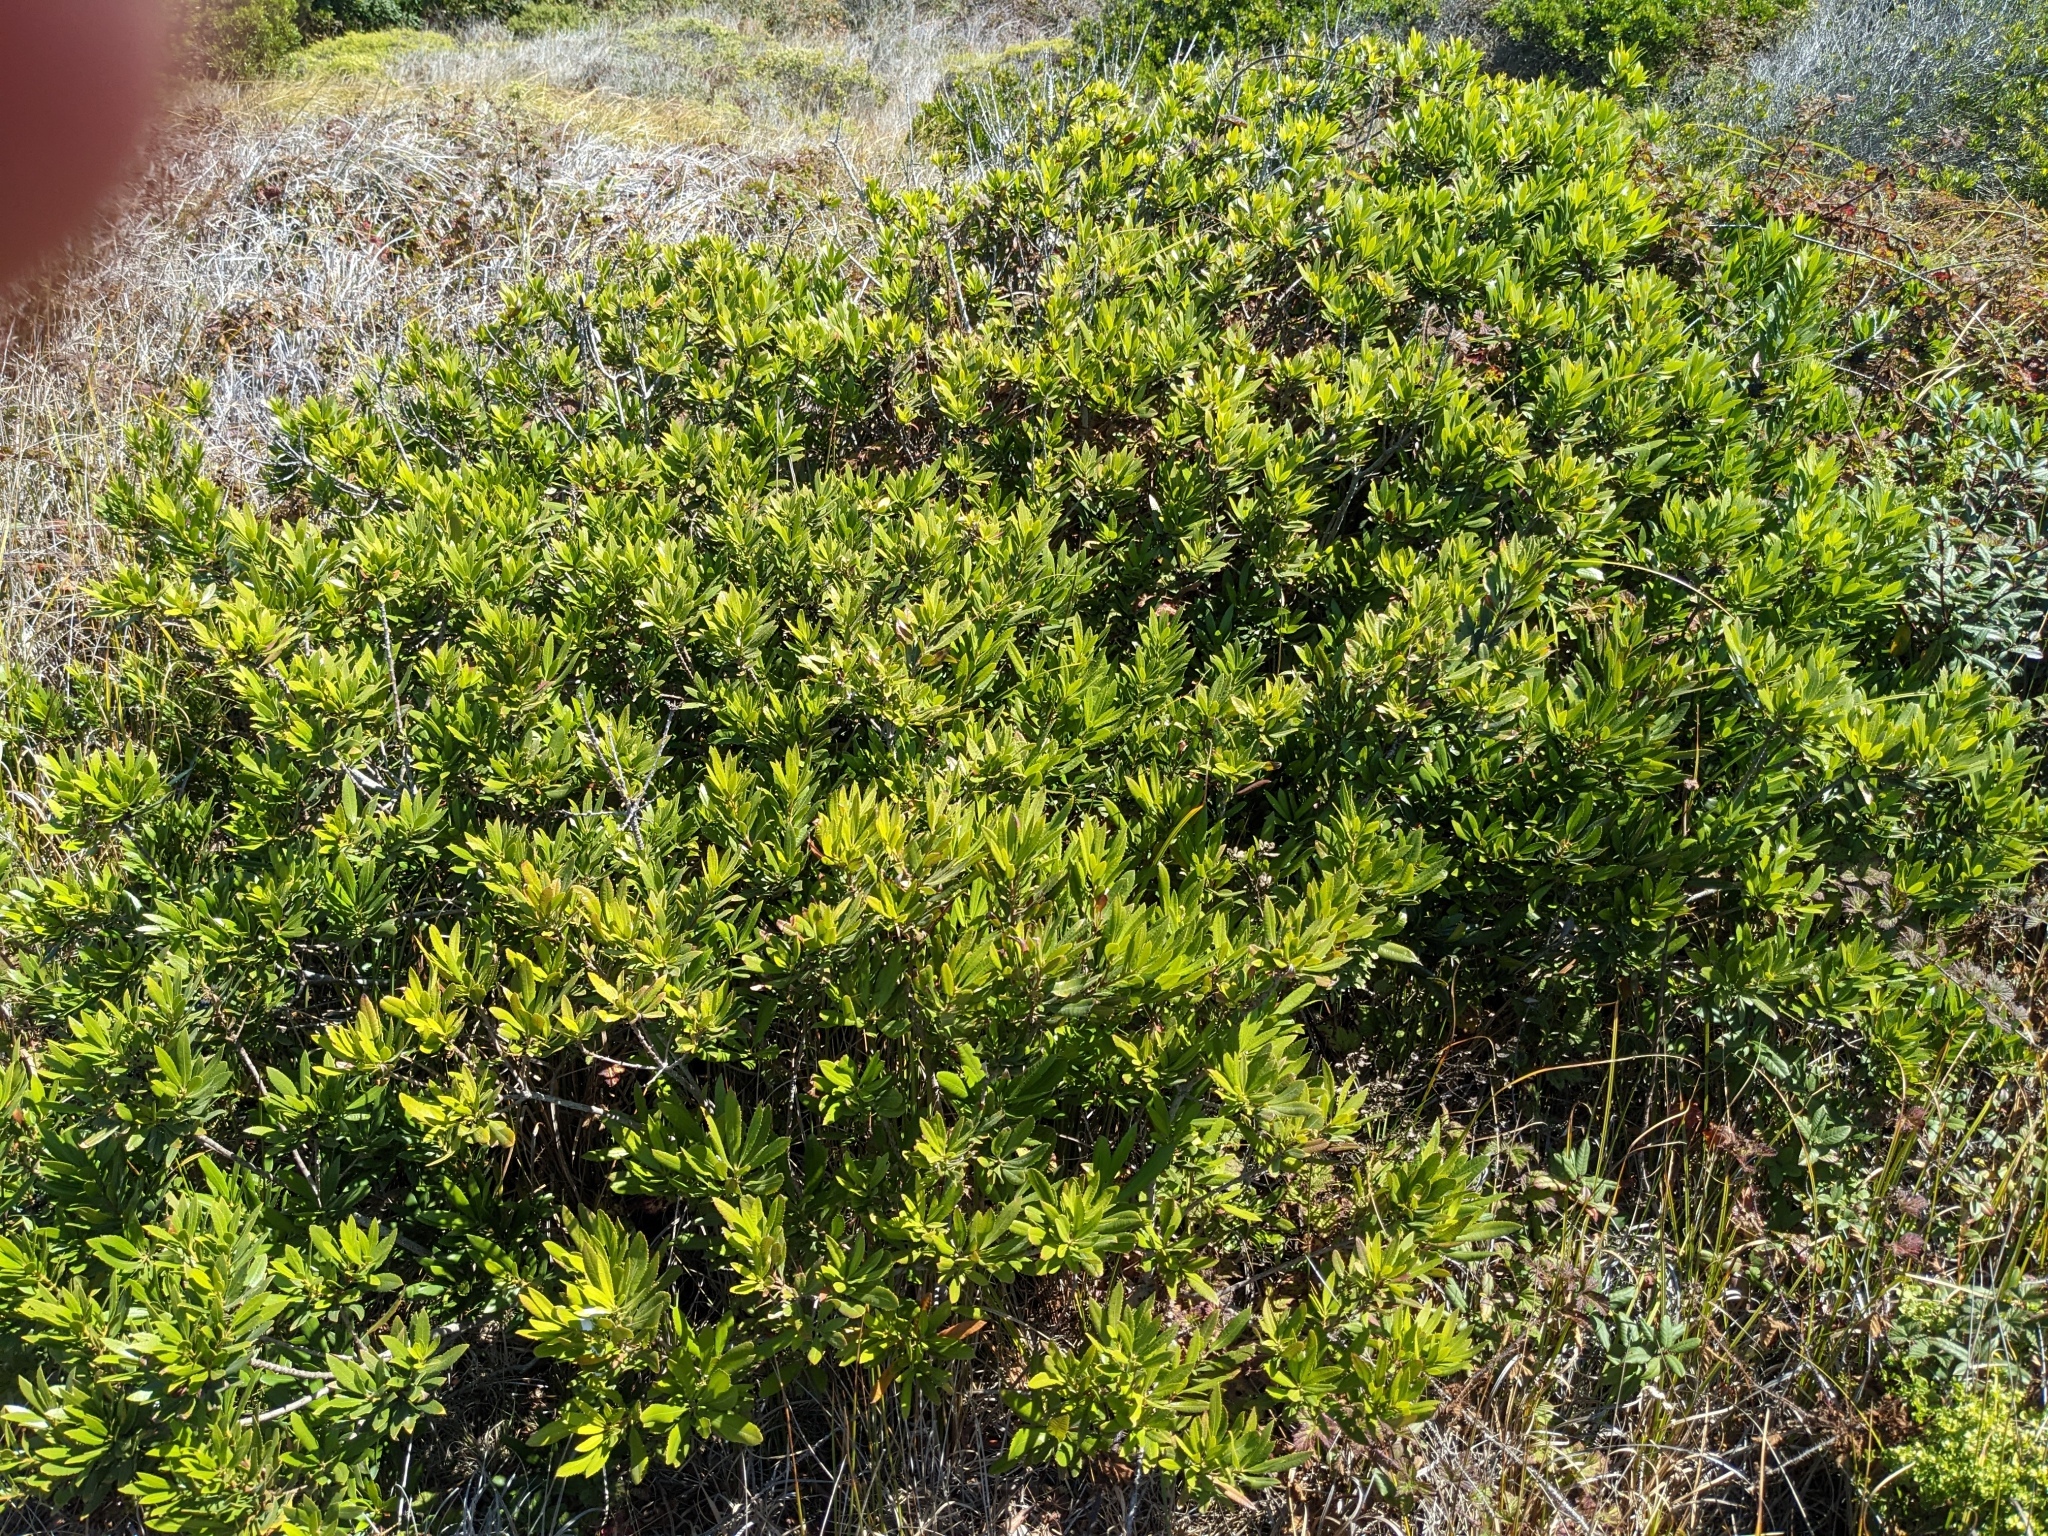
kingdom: Plantae
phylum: Tracheophyta
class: Magnoliopsida
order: Fagales
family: Myricaceae
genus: Morella
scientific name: Morella californica
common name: California wax-myrtle
